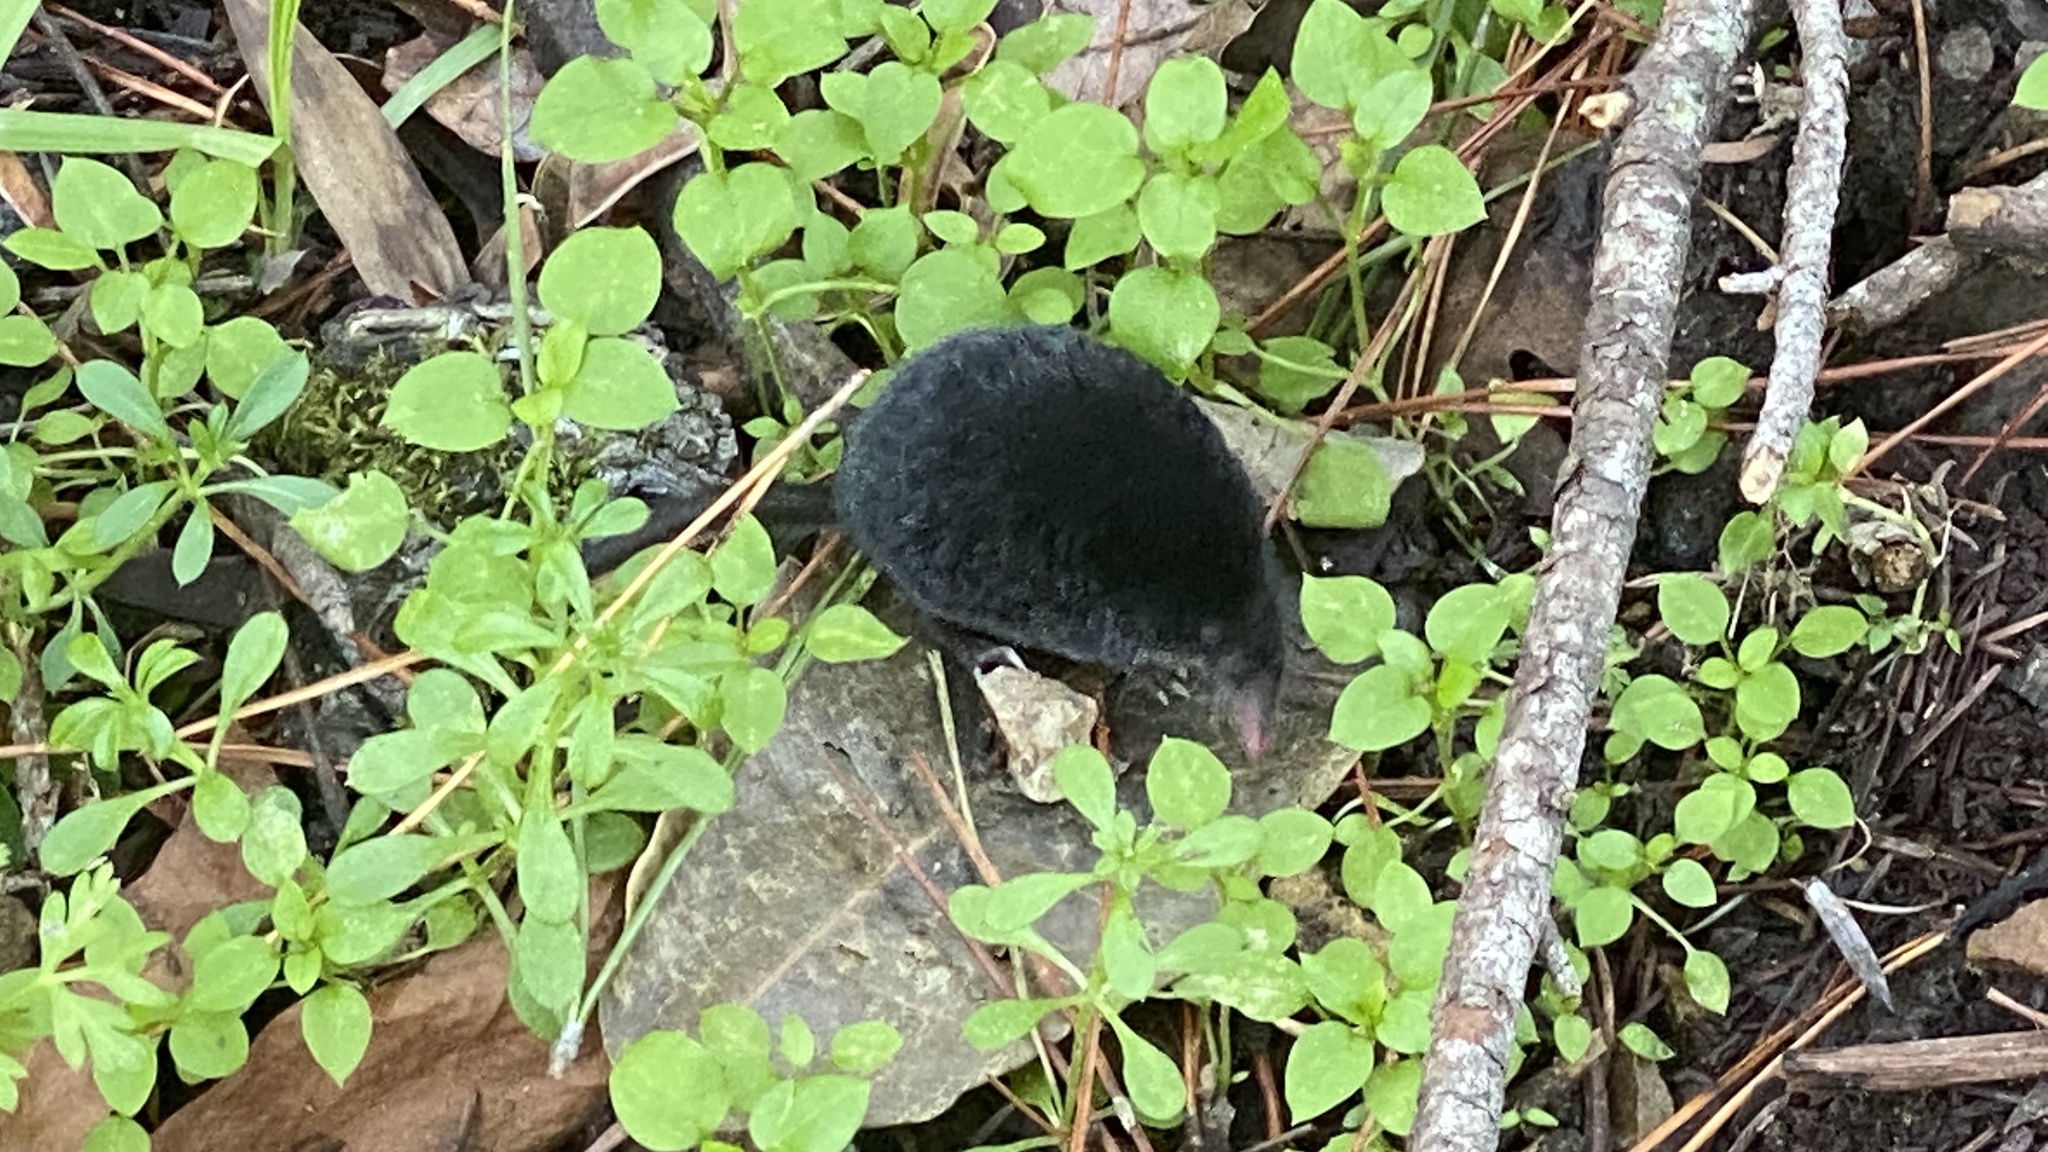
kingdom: Animalia
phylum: Chordata
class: Mammalia
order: Soricomorpha
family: Talpidae
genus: Neurotrichus
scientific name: Neurotrichus gibbsii
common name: American shrew mole
